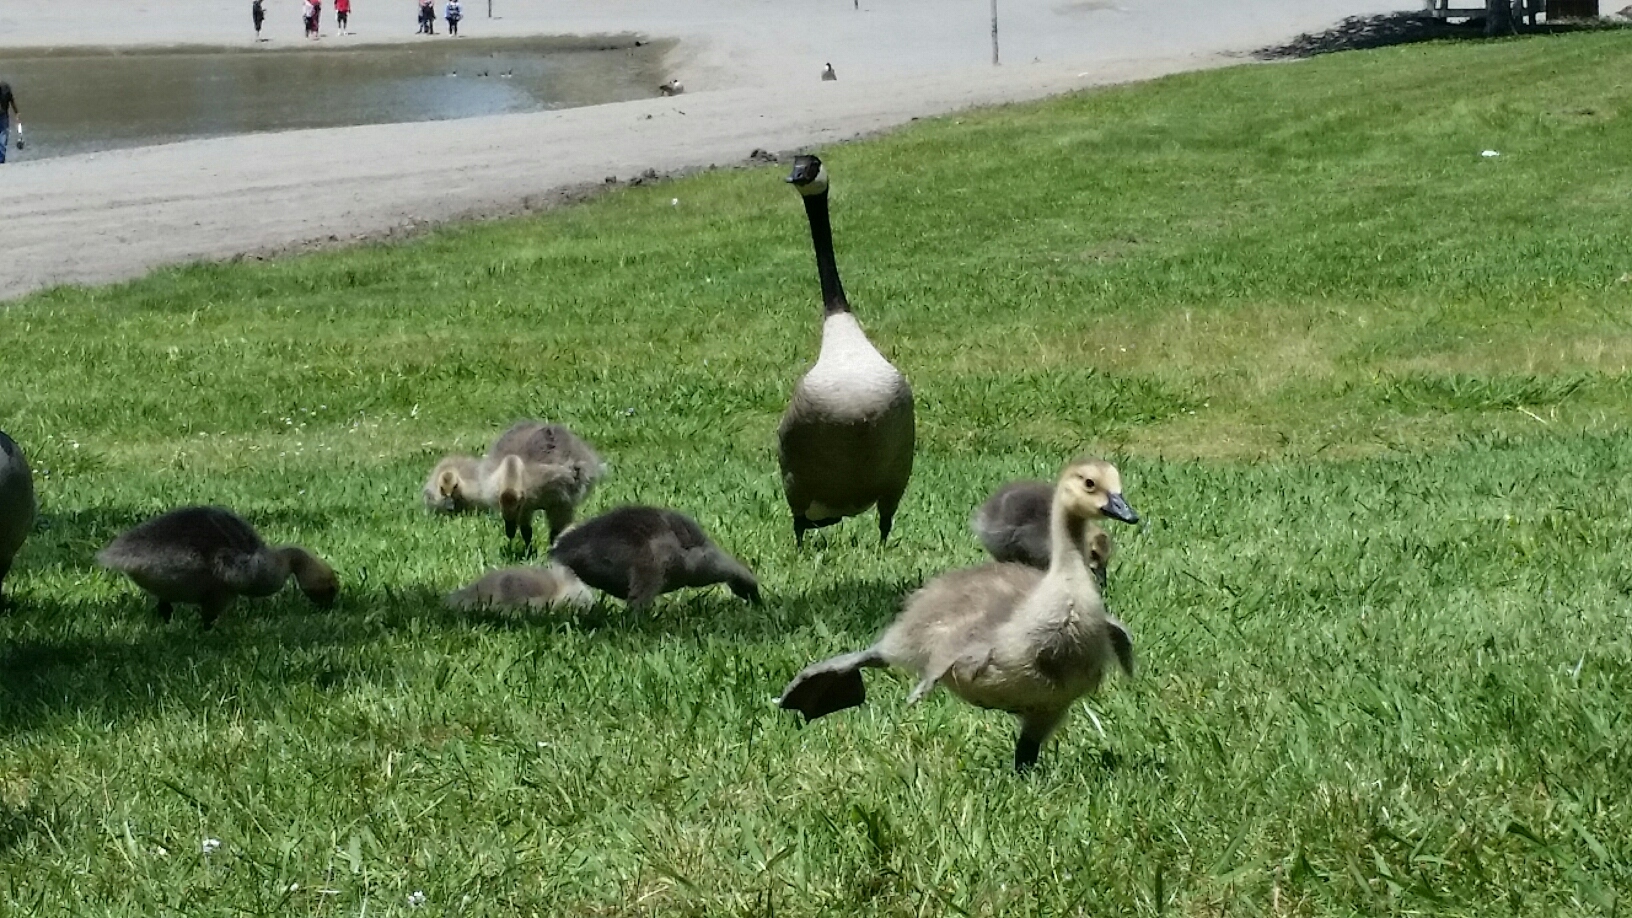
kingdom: Animalia
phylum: Chordata
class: Aves
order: Anseriformes
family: Anatidae
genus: Branta
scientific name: Branta canadensis
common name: Canada goose
